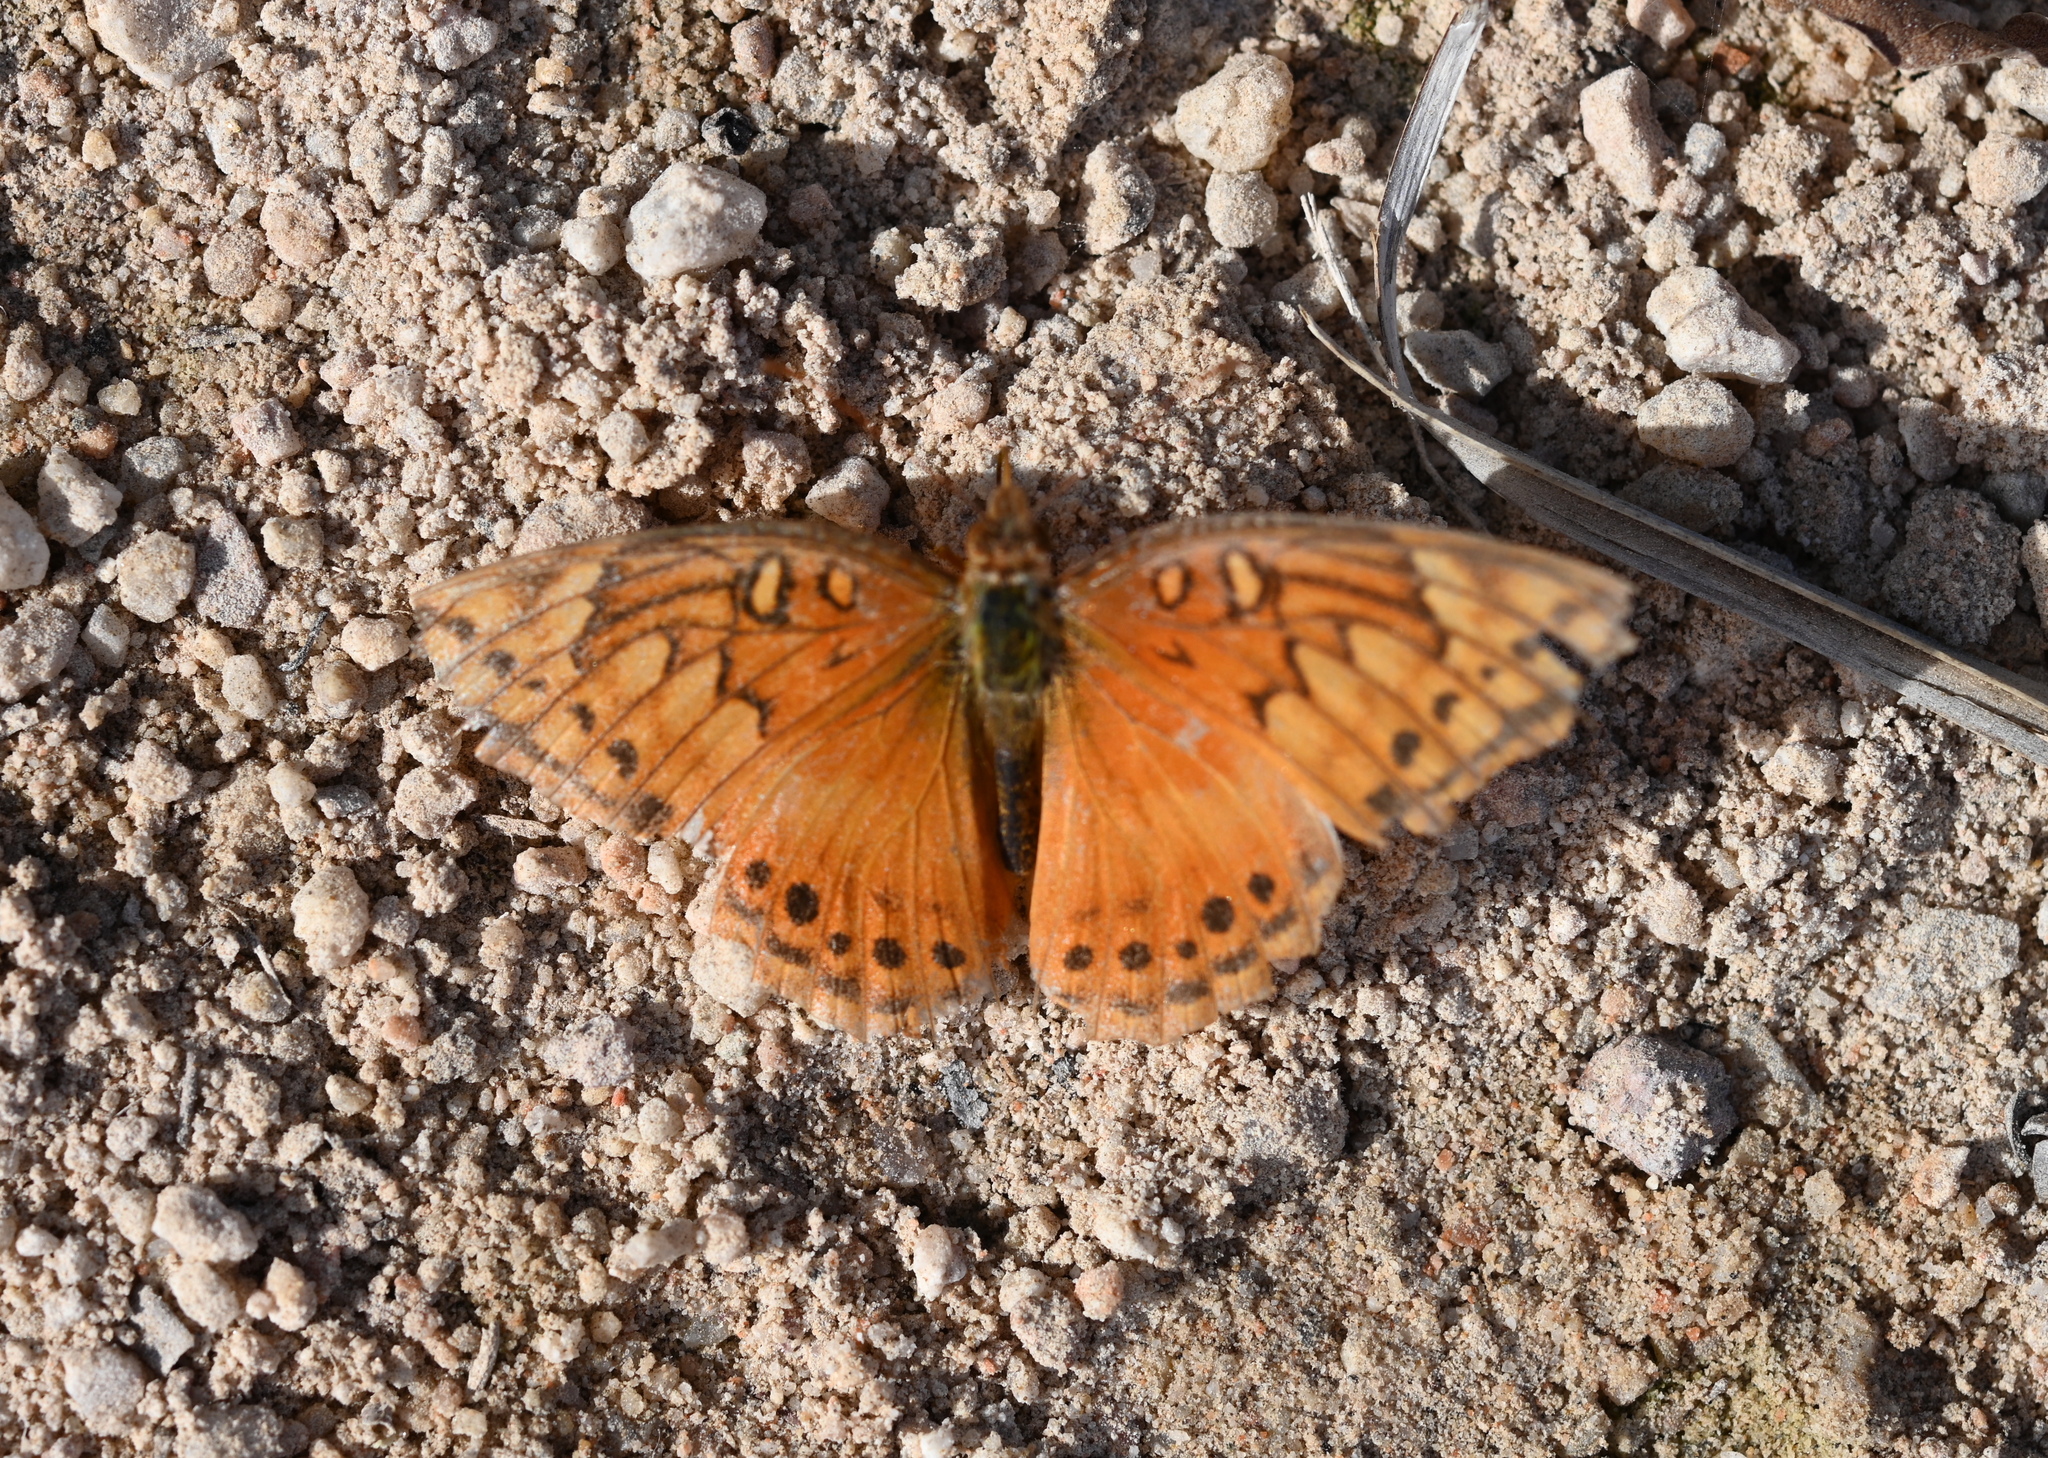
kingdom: Animalia
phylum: Arthropoda
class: Insecta
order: Lepidoptera
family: Nymphalidae
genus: Euptoieta
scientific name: Euptoieta hegesia
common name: Mexican fritillary
